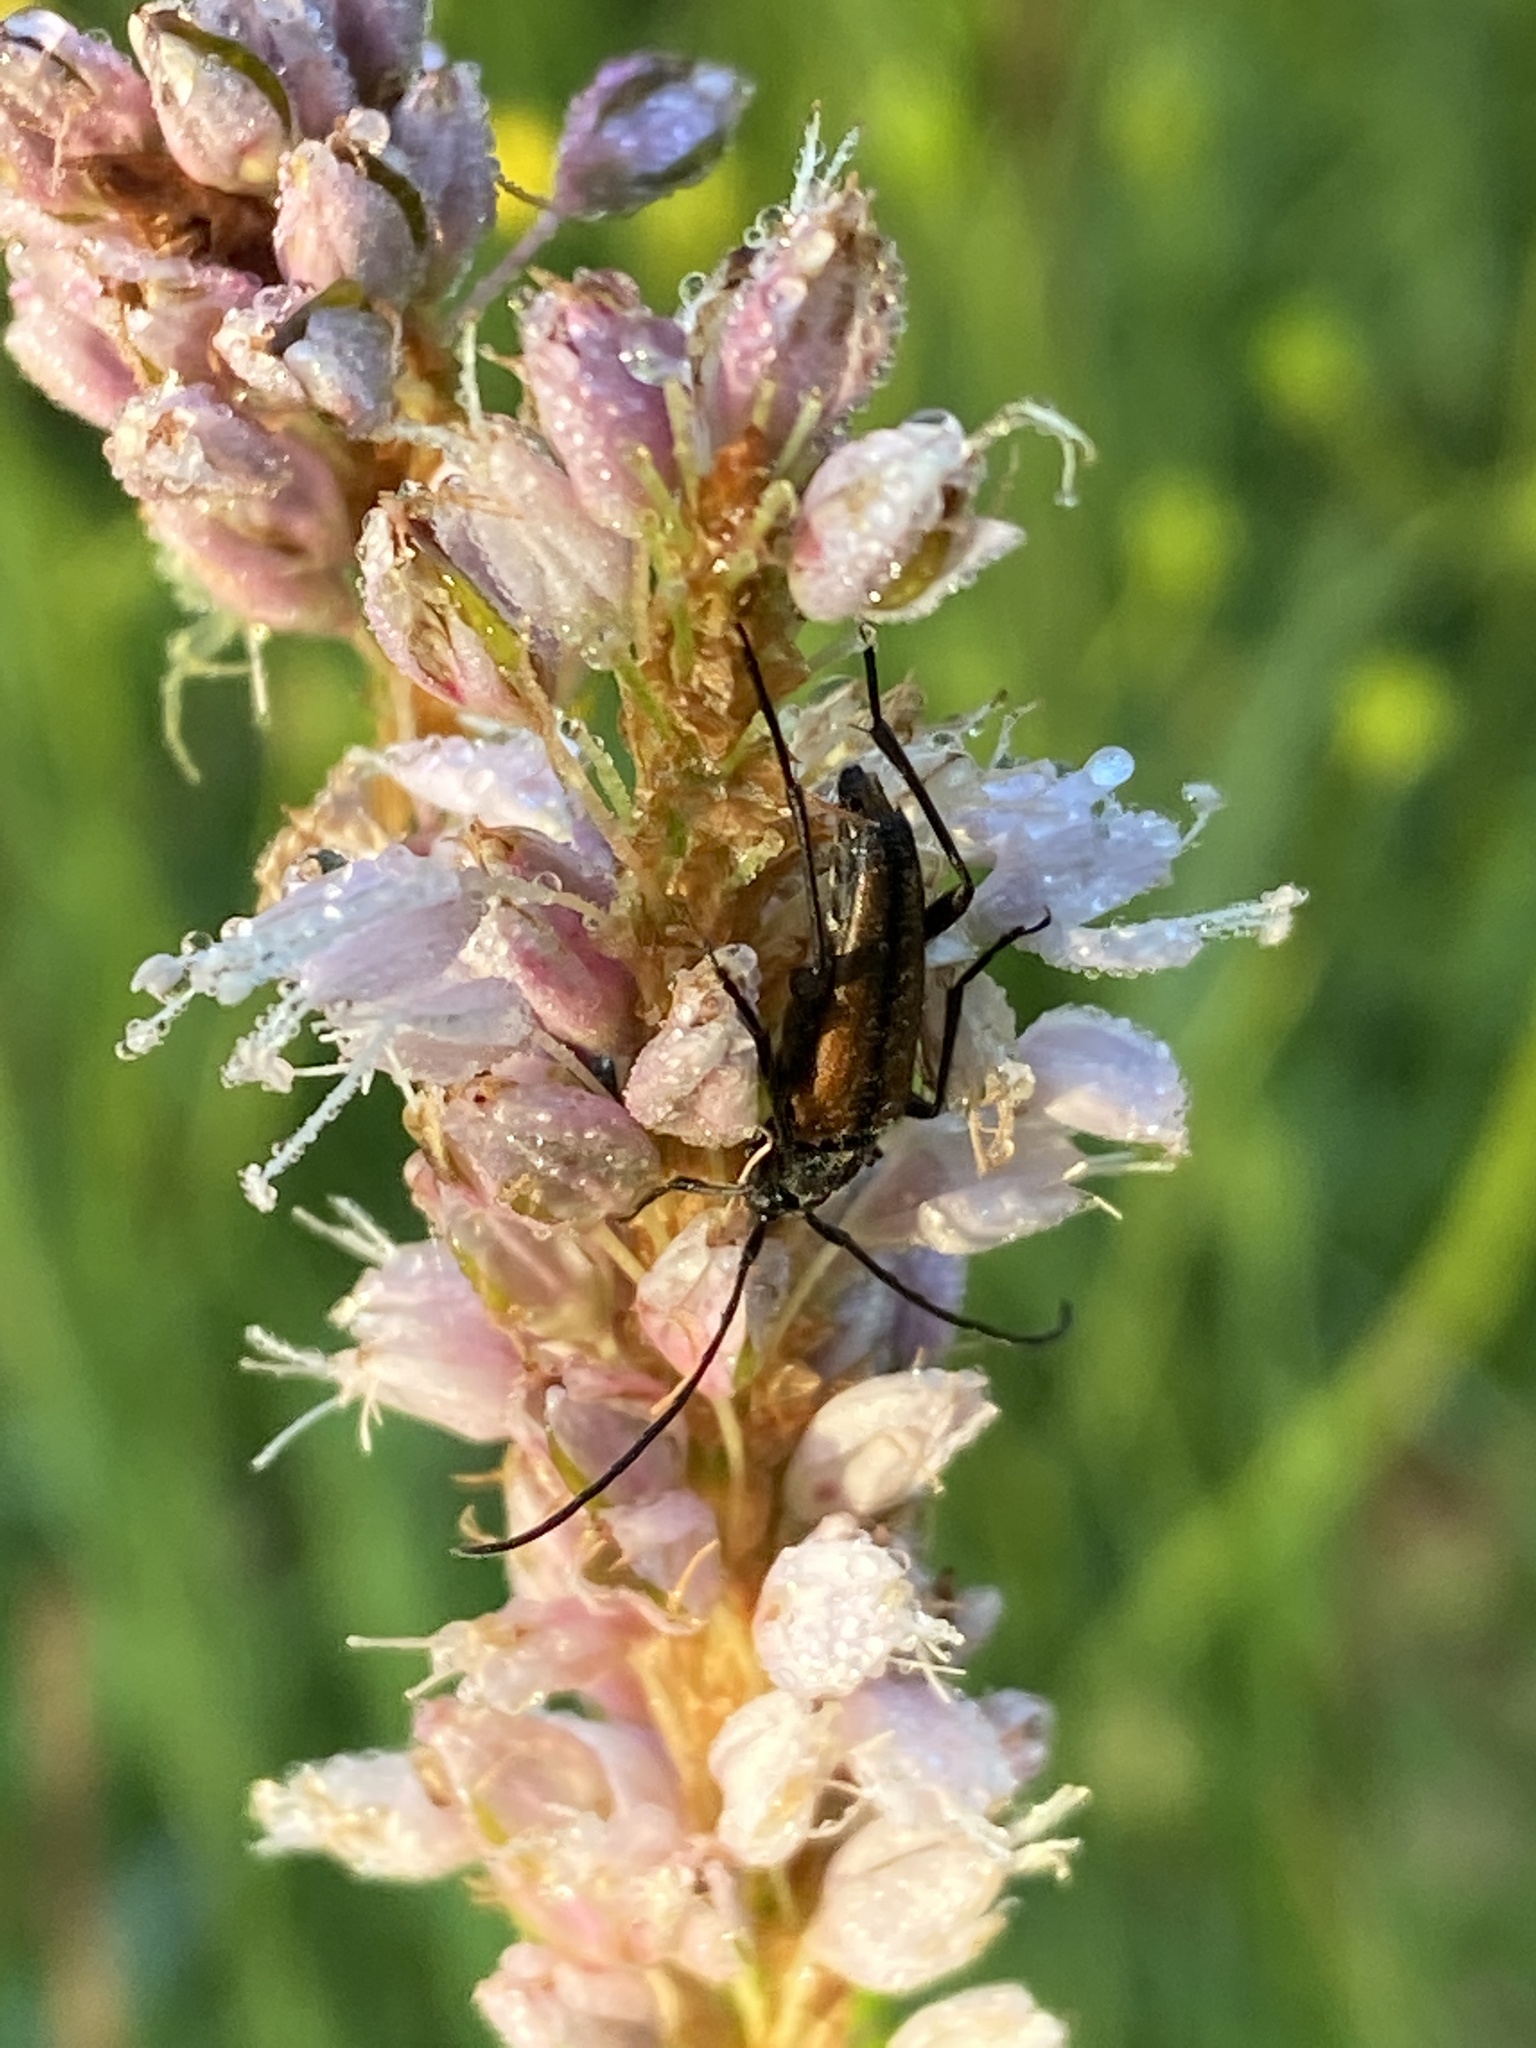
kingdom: Animalia
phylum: Arthropoda
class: Insecta
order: Coleoptera
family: Cerambycidae
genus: Stenurella
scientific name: Stenurella melanura
